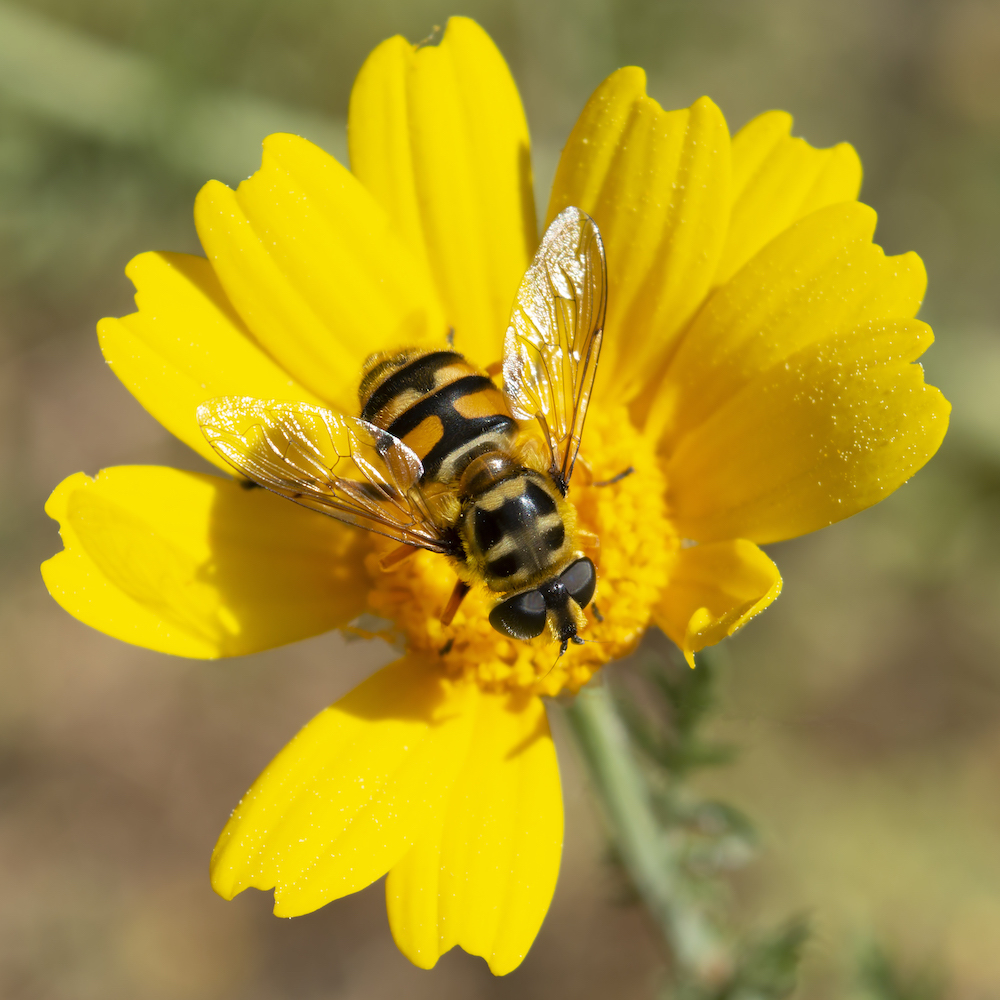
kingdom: Animalia
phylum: Arthropoda
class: Insecta
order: Diptera
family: Syrphidae
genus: Myathropa
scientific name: Myathropa florea
